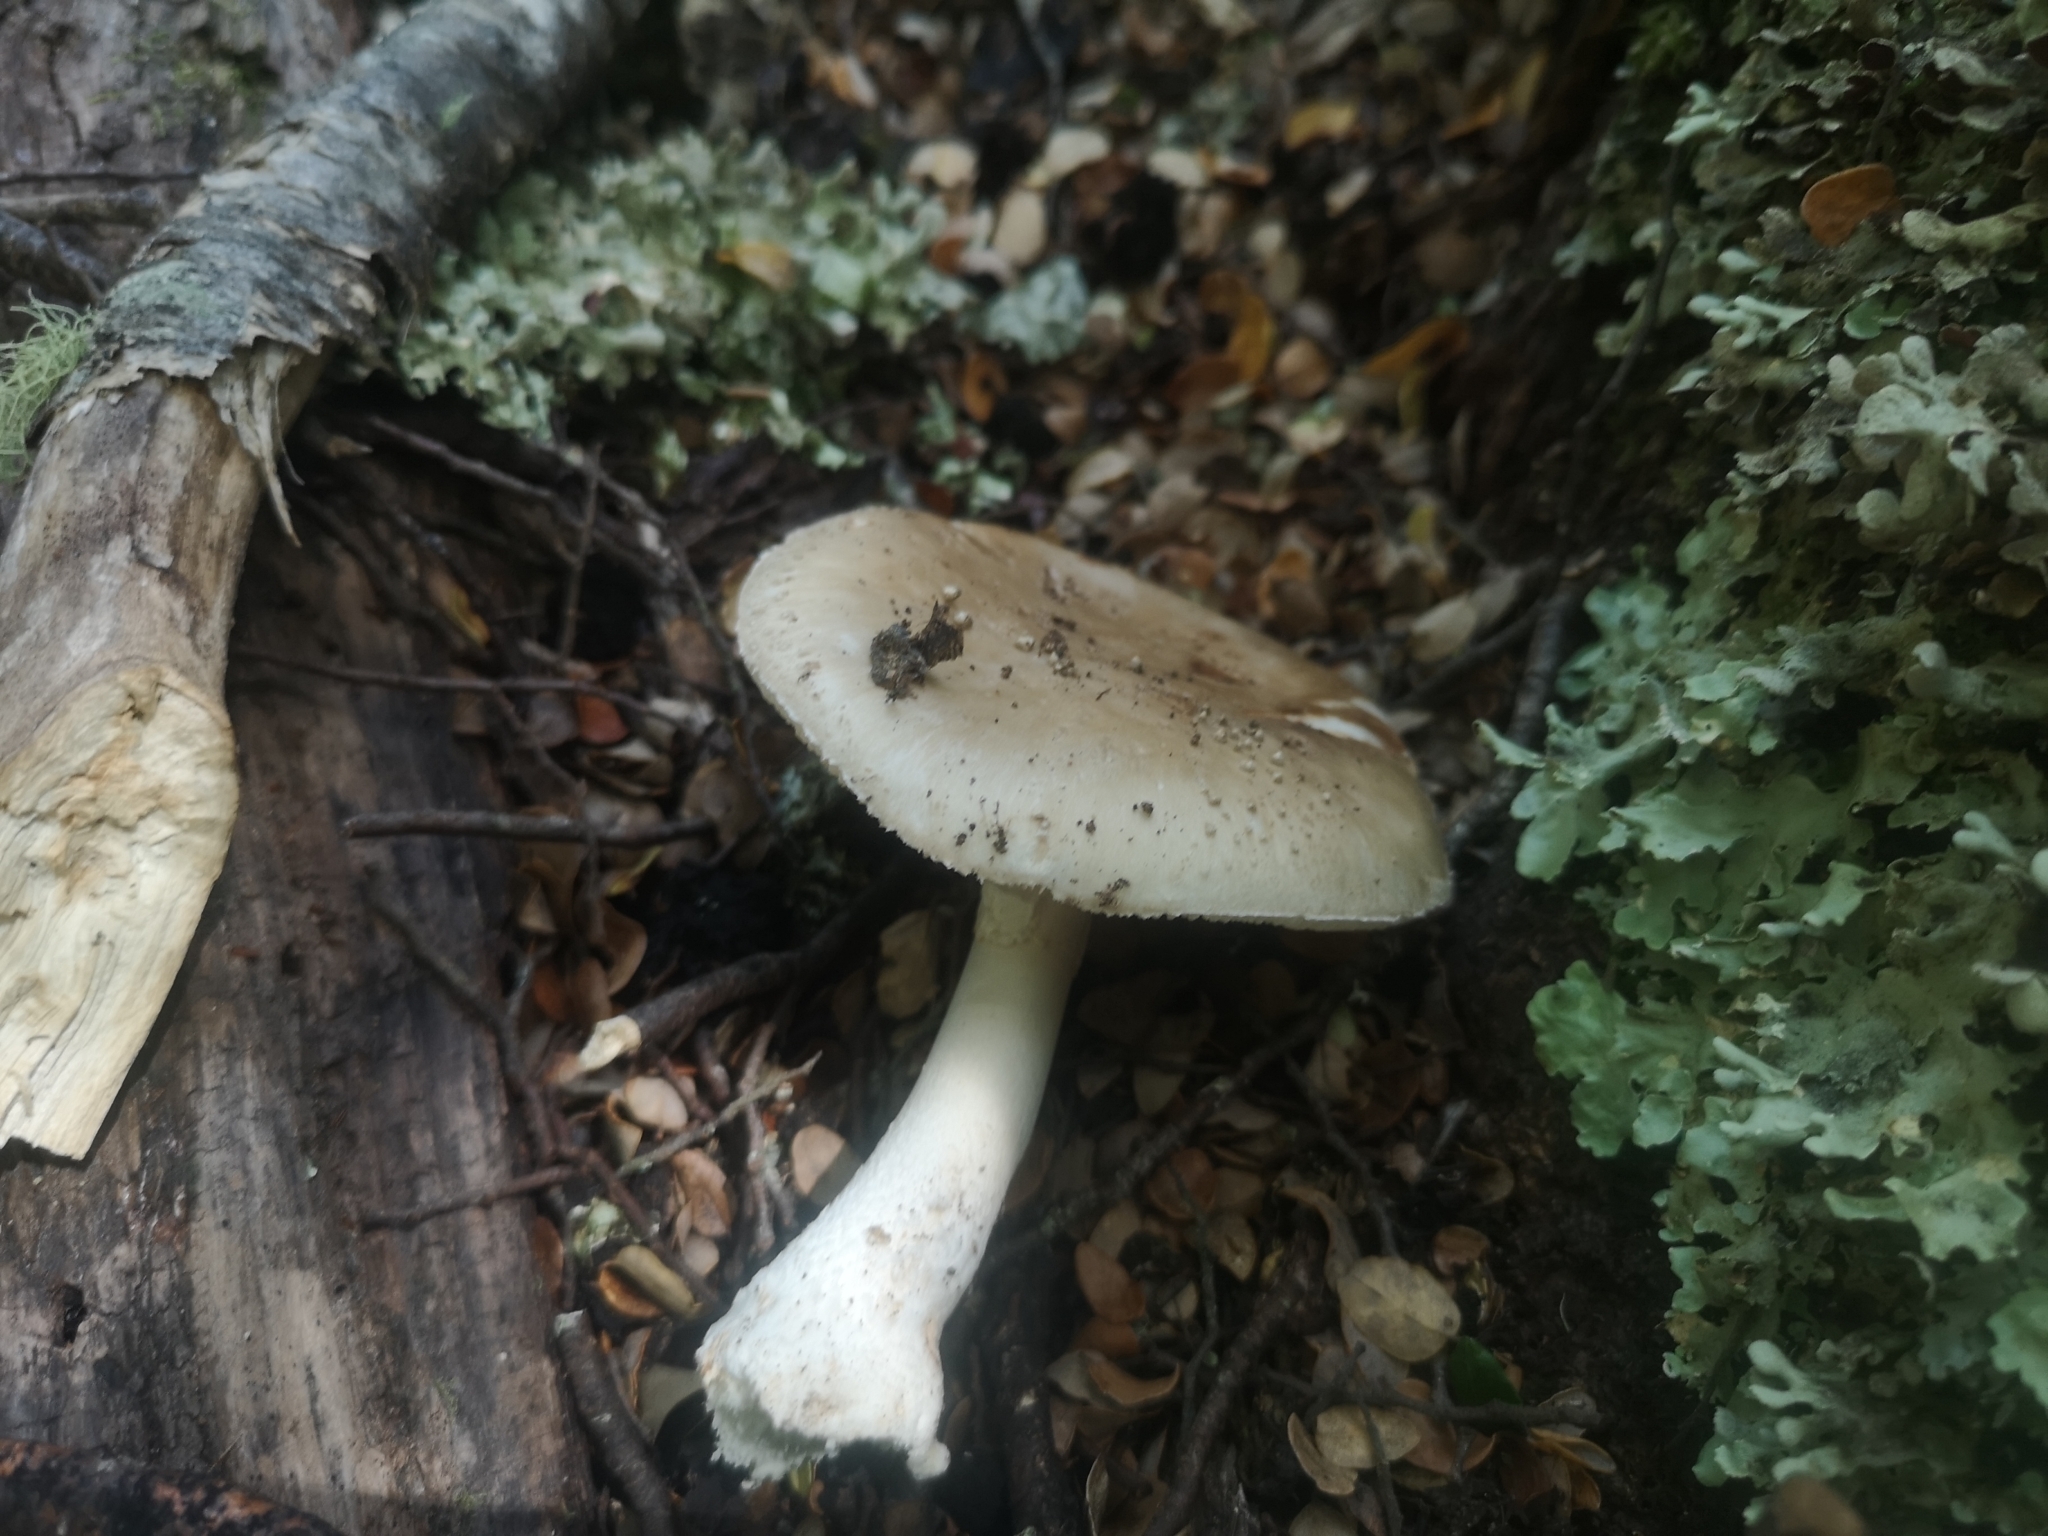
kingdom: Fungi
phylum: Basidiomycota
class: Agaricomycetes
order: Agaricales
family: Amanitaceae
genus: Amanita
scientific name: Amanita australis
